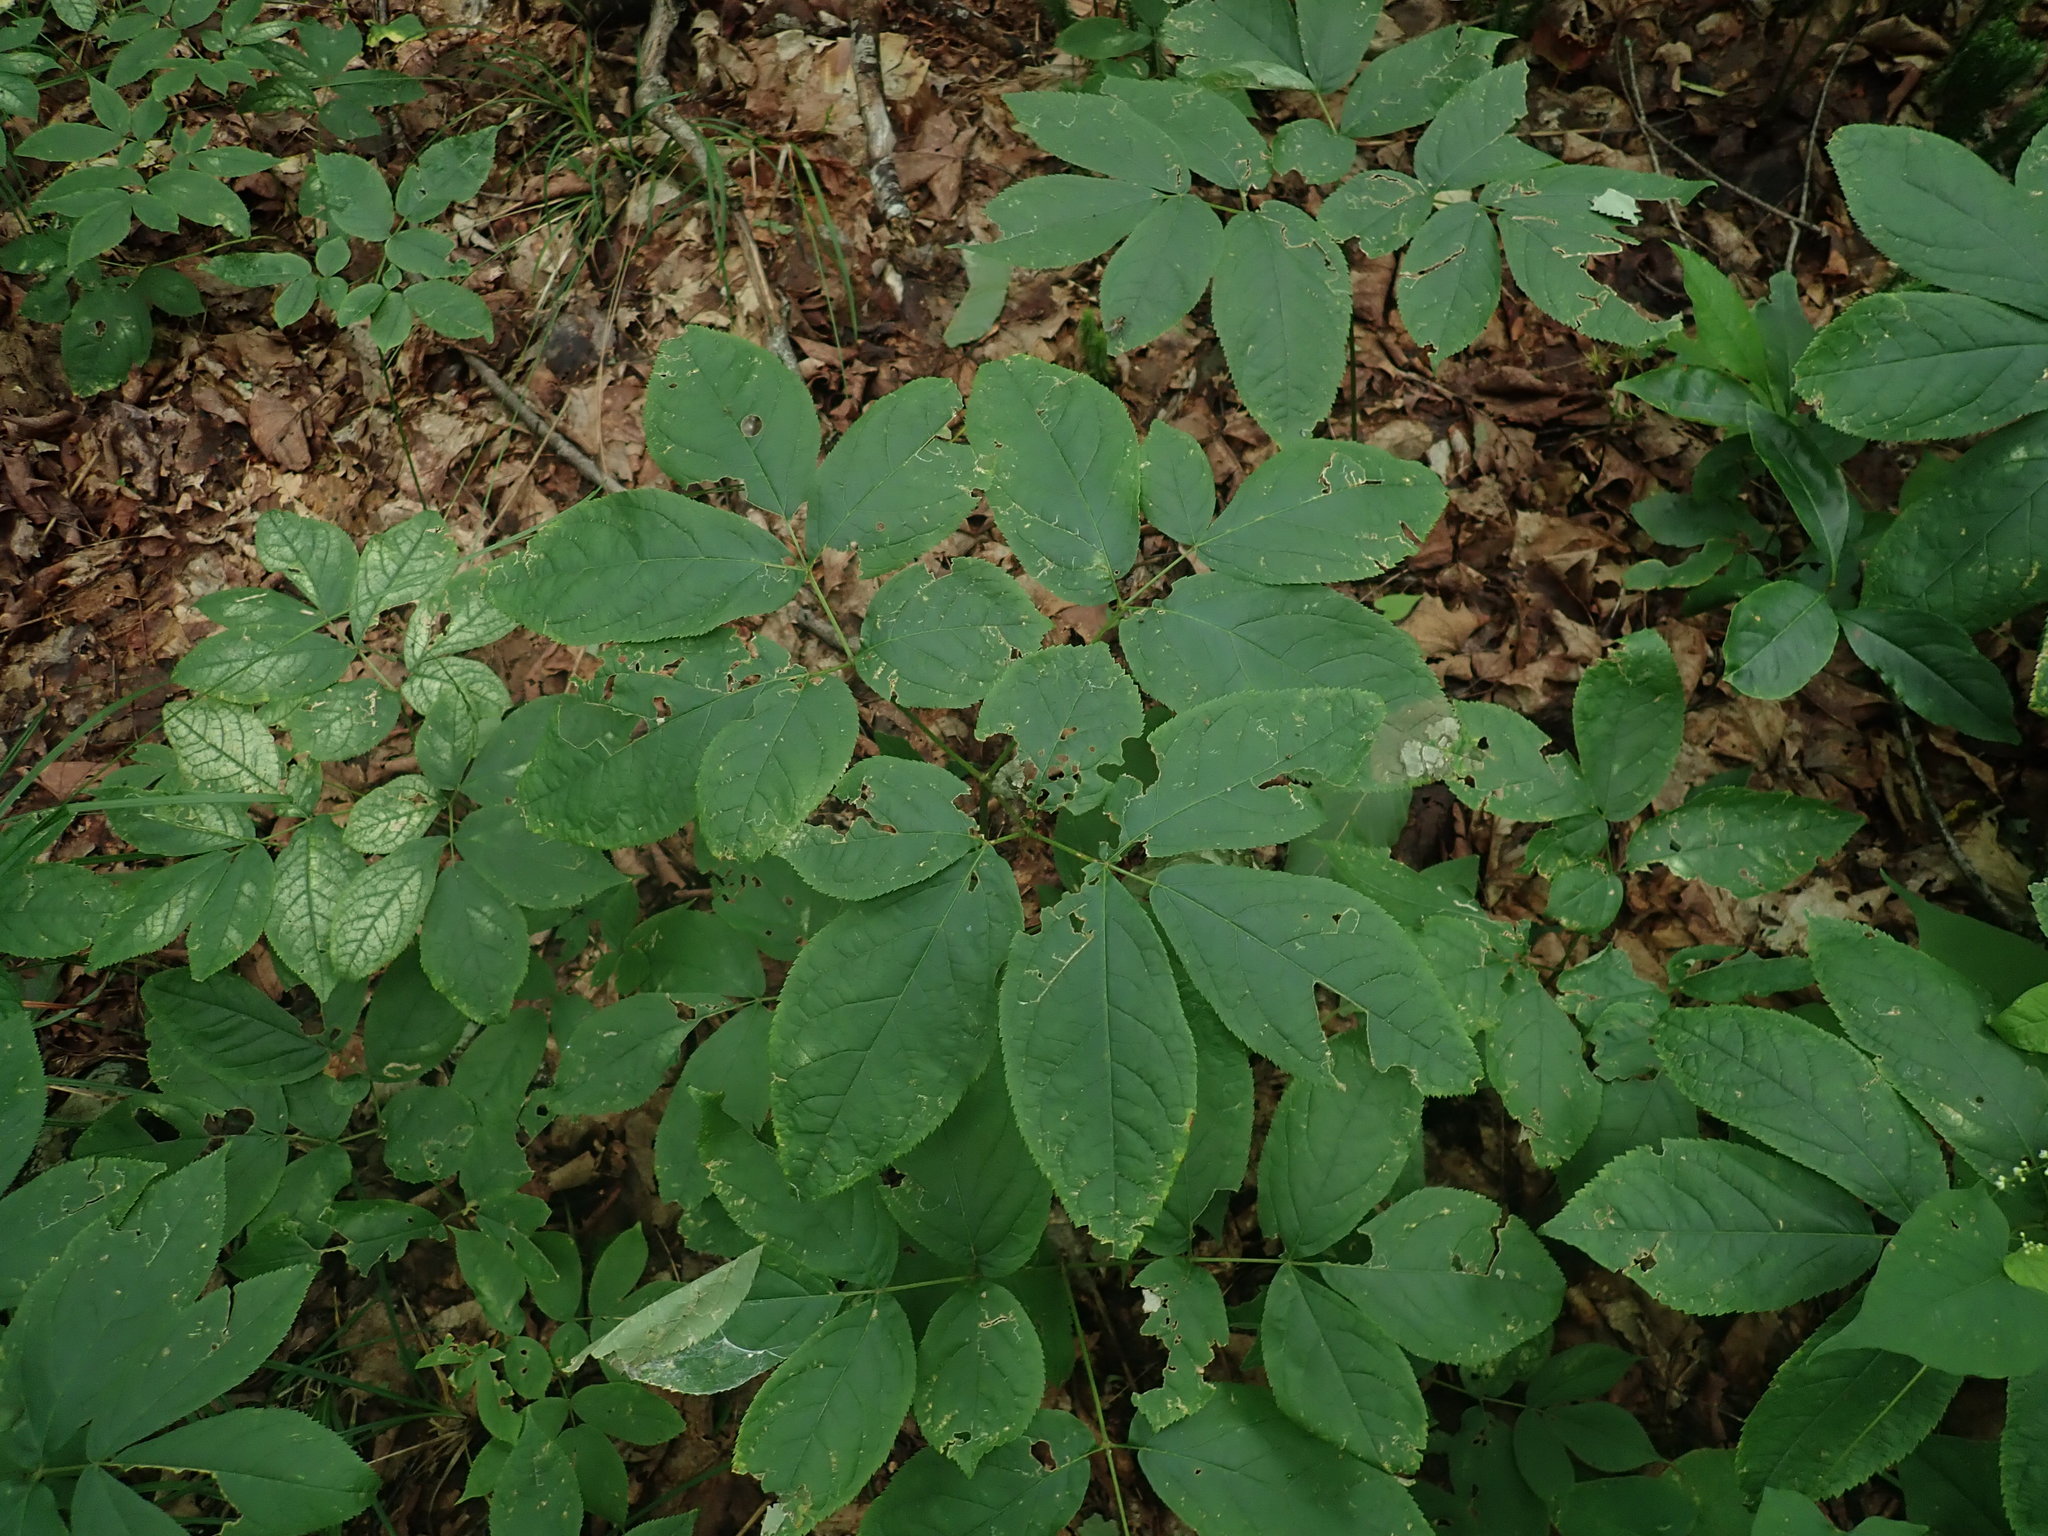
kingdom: Plantae
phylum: Tracheophyta
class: Magnoliopsida
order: Apiales
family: Araliaceae
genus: Aralia
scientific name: Aralia nudicaulis
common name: Wild sarsaparilla
